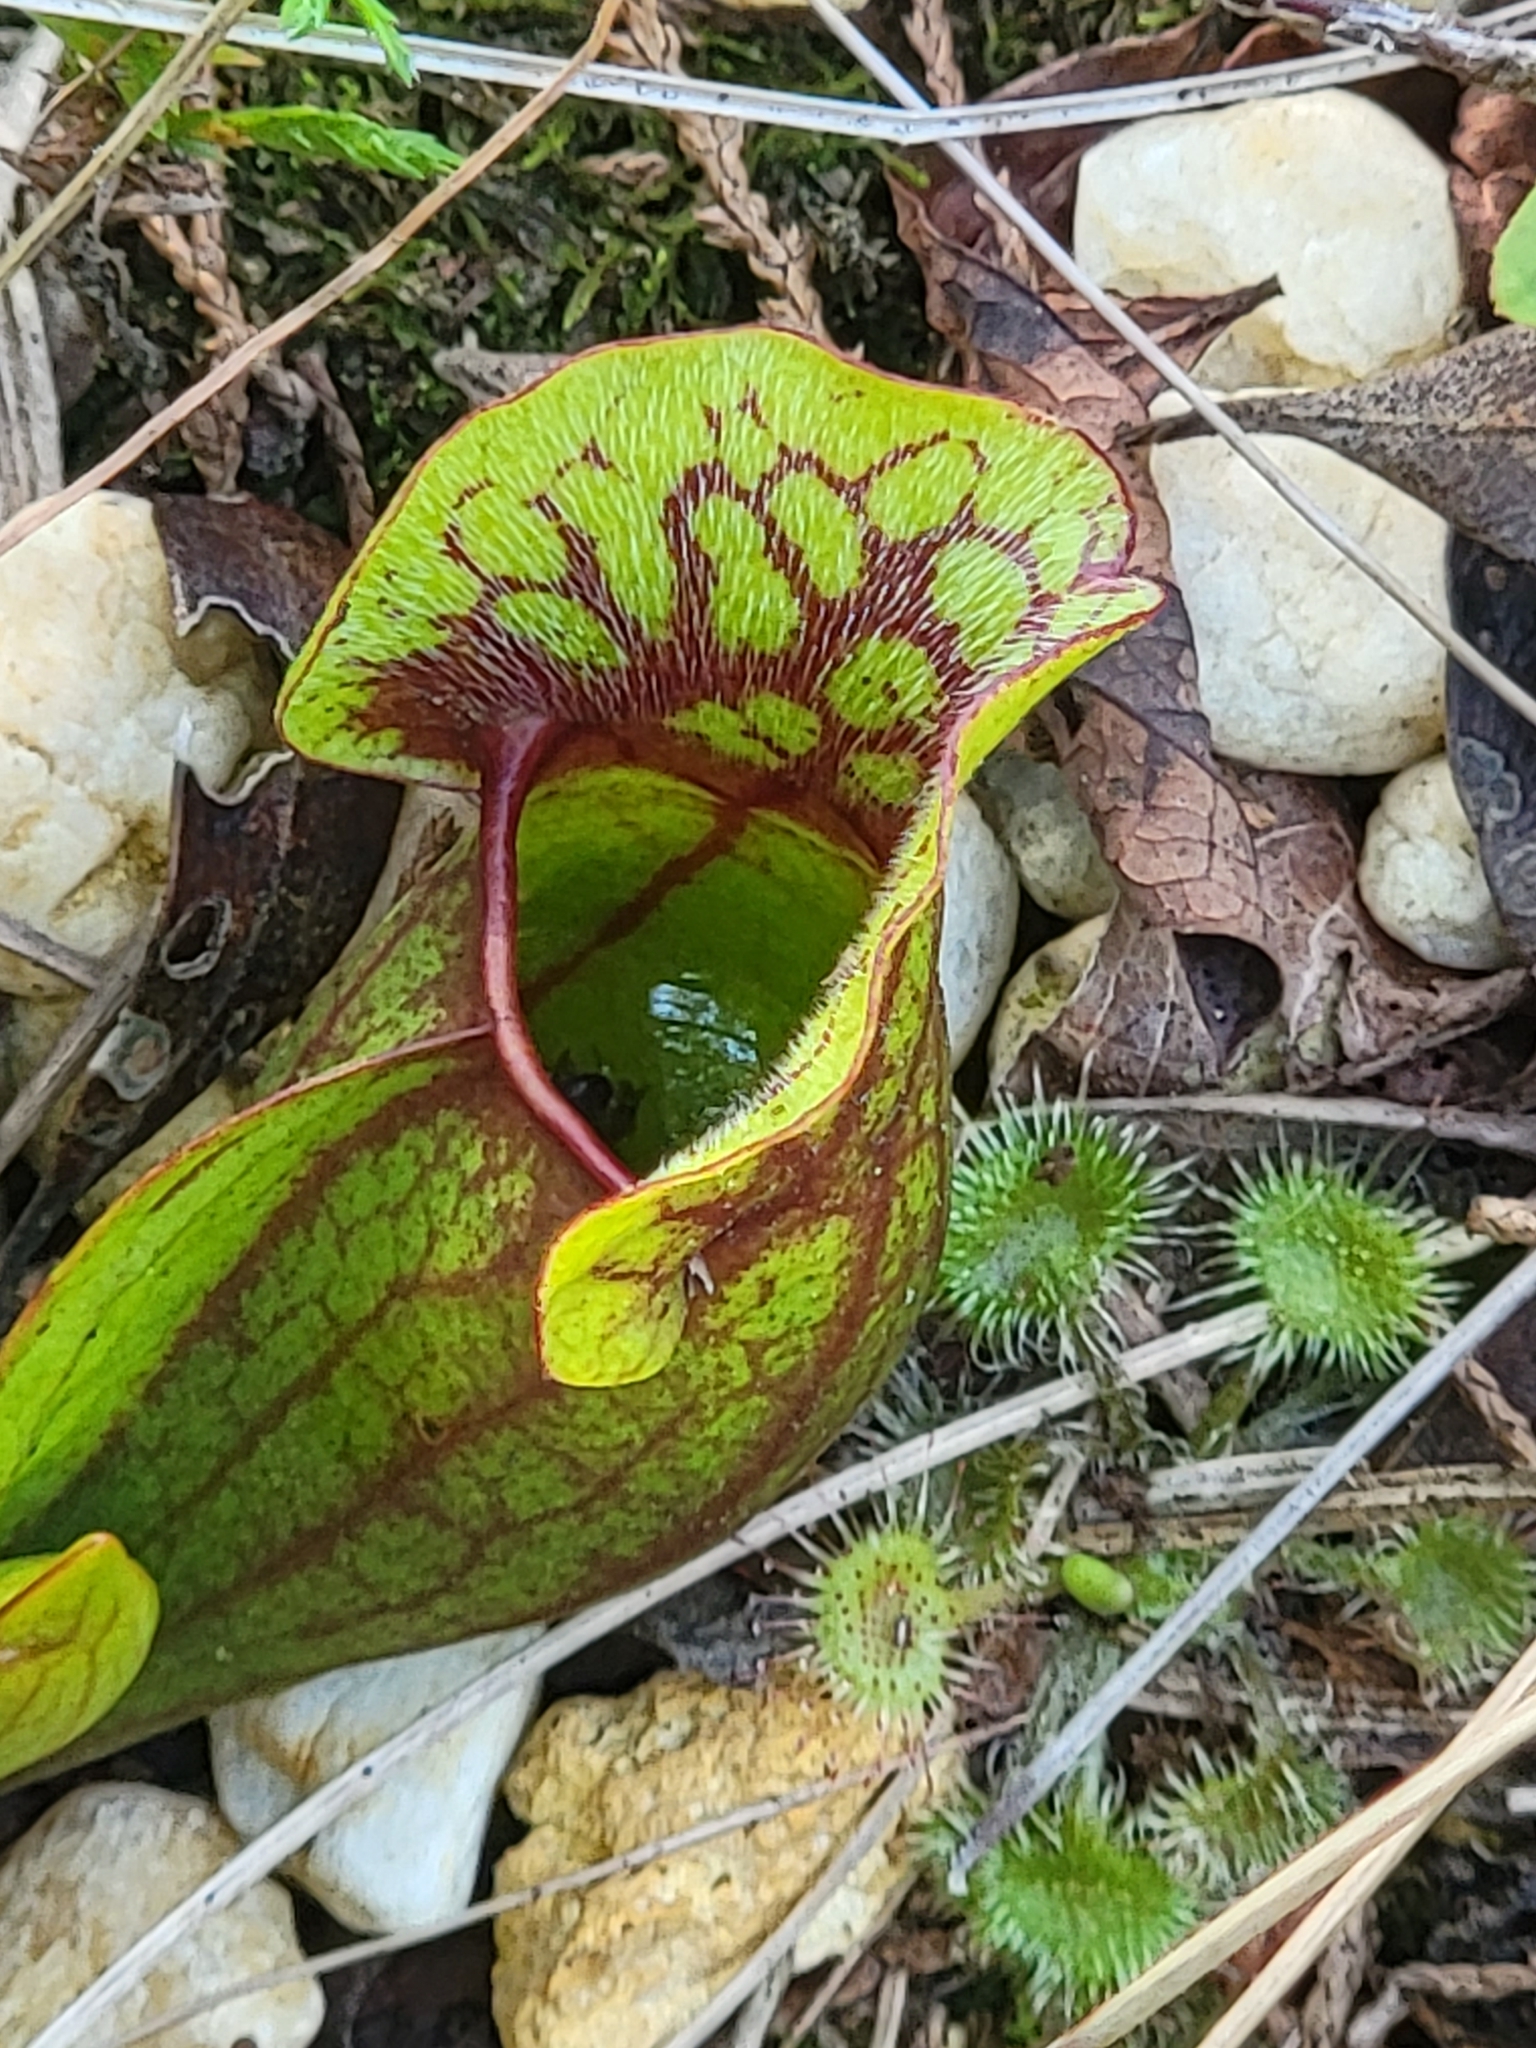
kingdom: Plantae
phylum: Tracheophyta
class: Magnoliopsida
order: Ericales
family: Sarraceniaceae
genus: Sarracenia
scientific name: Sarracenia purpurea
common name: Pitcherplant
